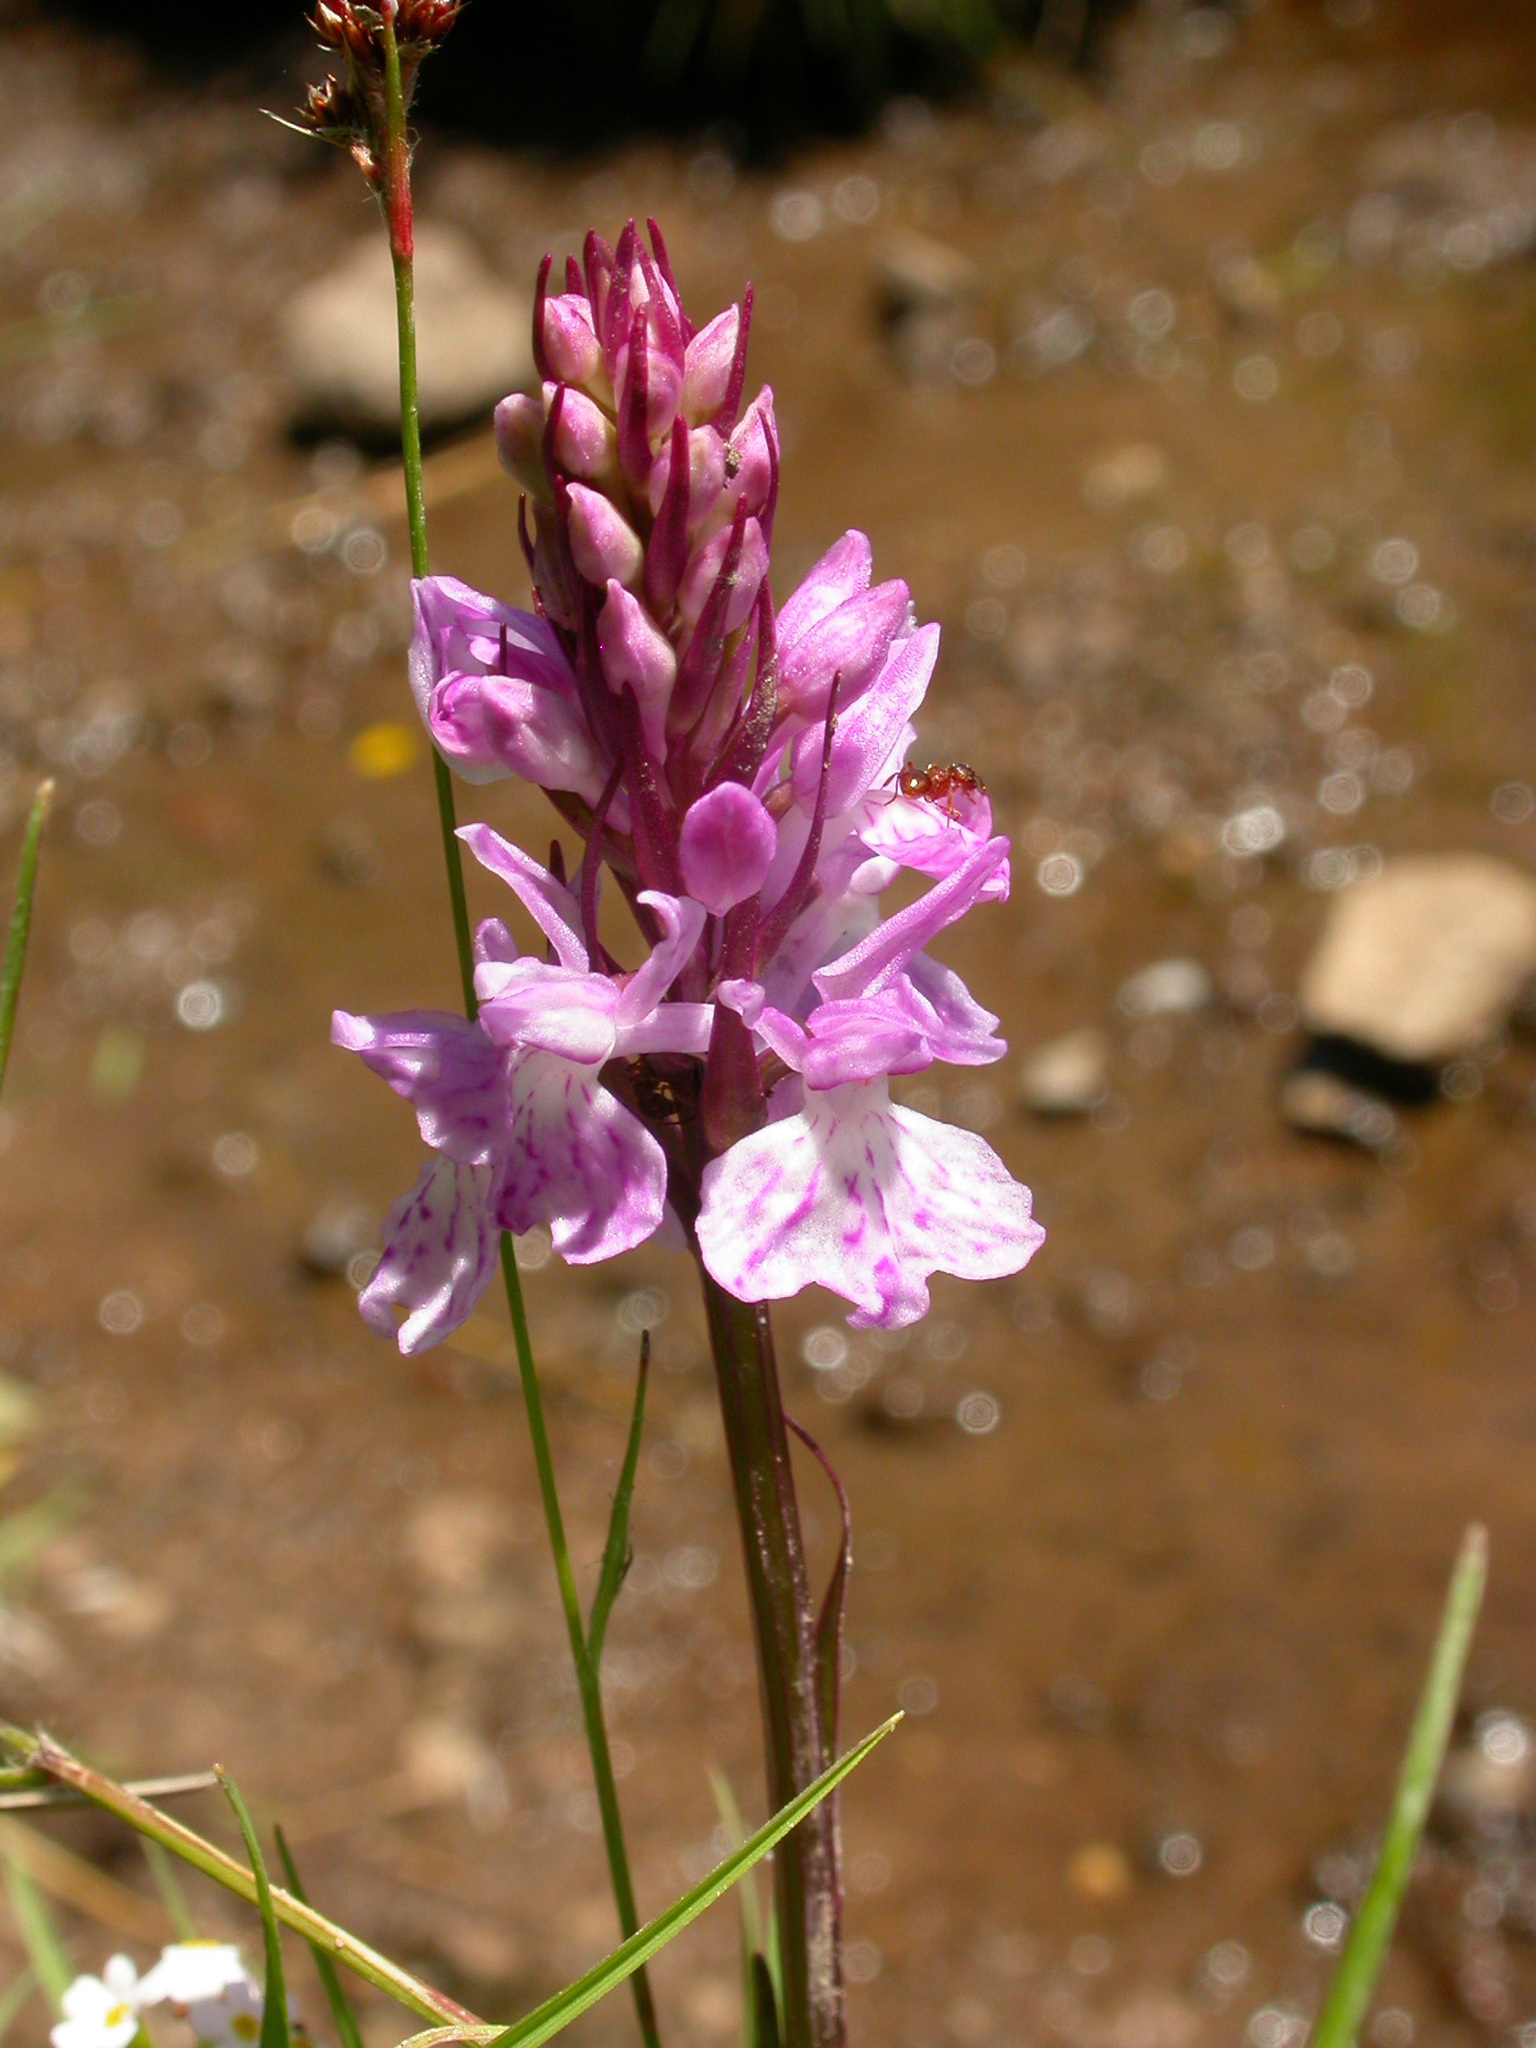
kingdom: Plantae
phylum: Tracheophyta
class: Liliopsida
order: Asparagales
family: Orchidaceae
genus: Dactylorhiza
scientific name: Dactylorhiza maculata
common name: Heath spotted-orchid
